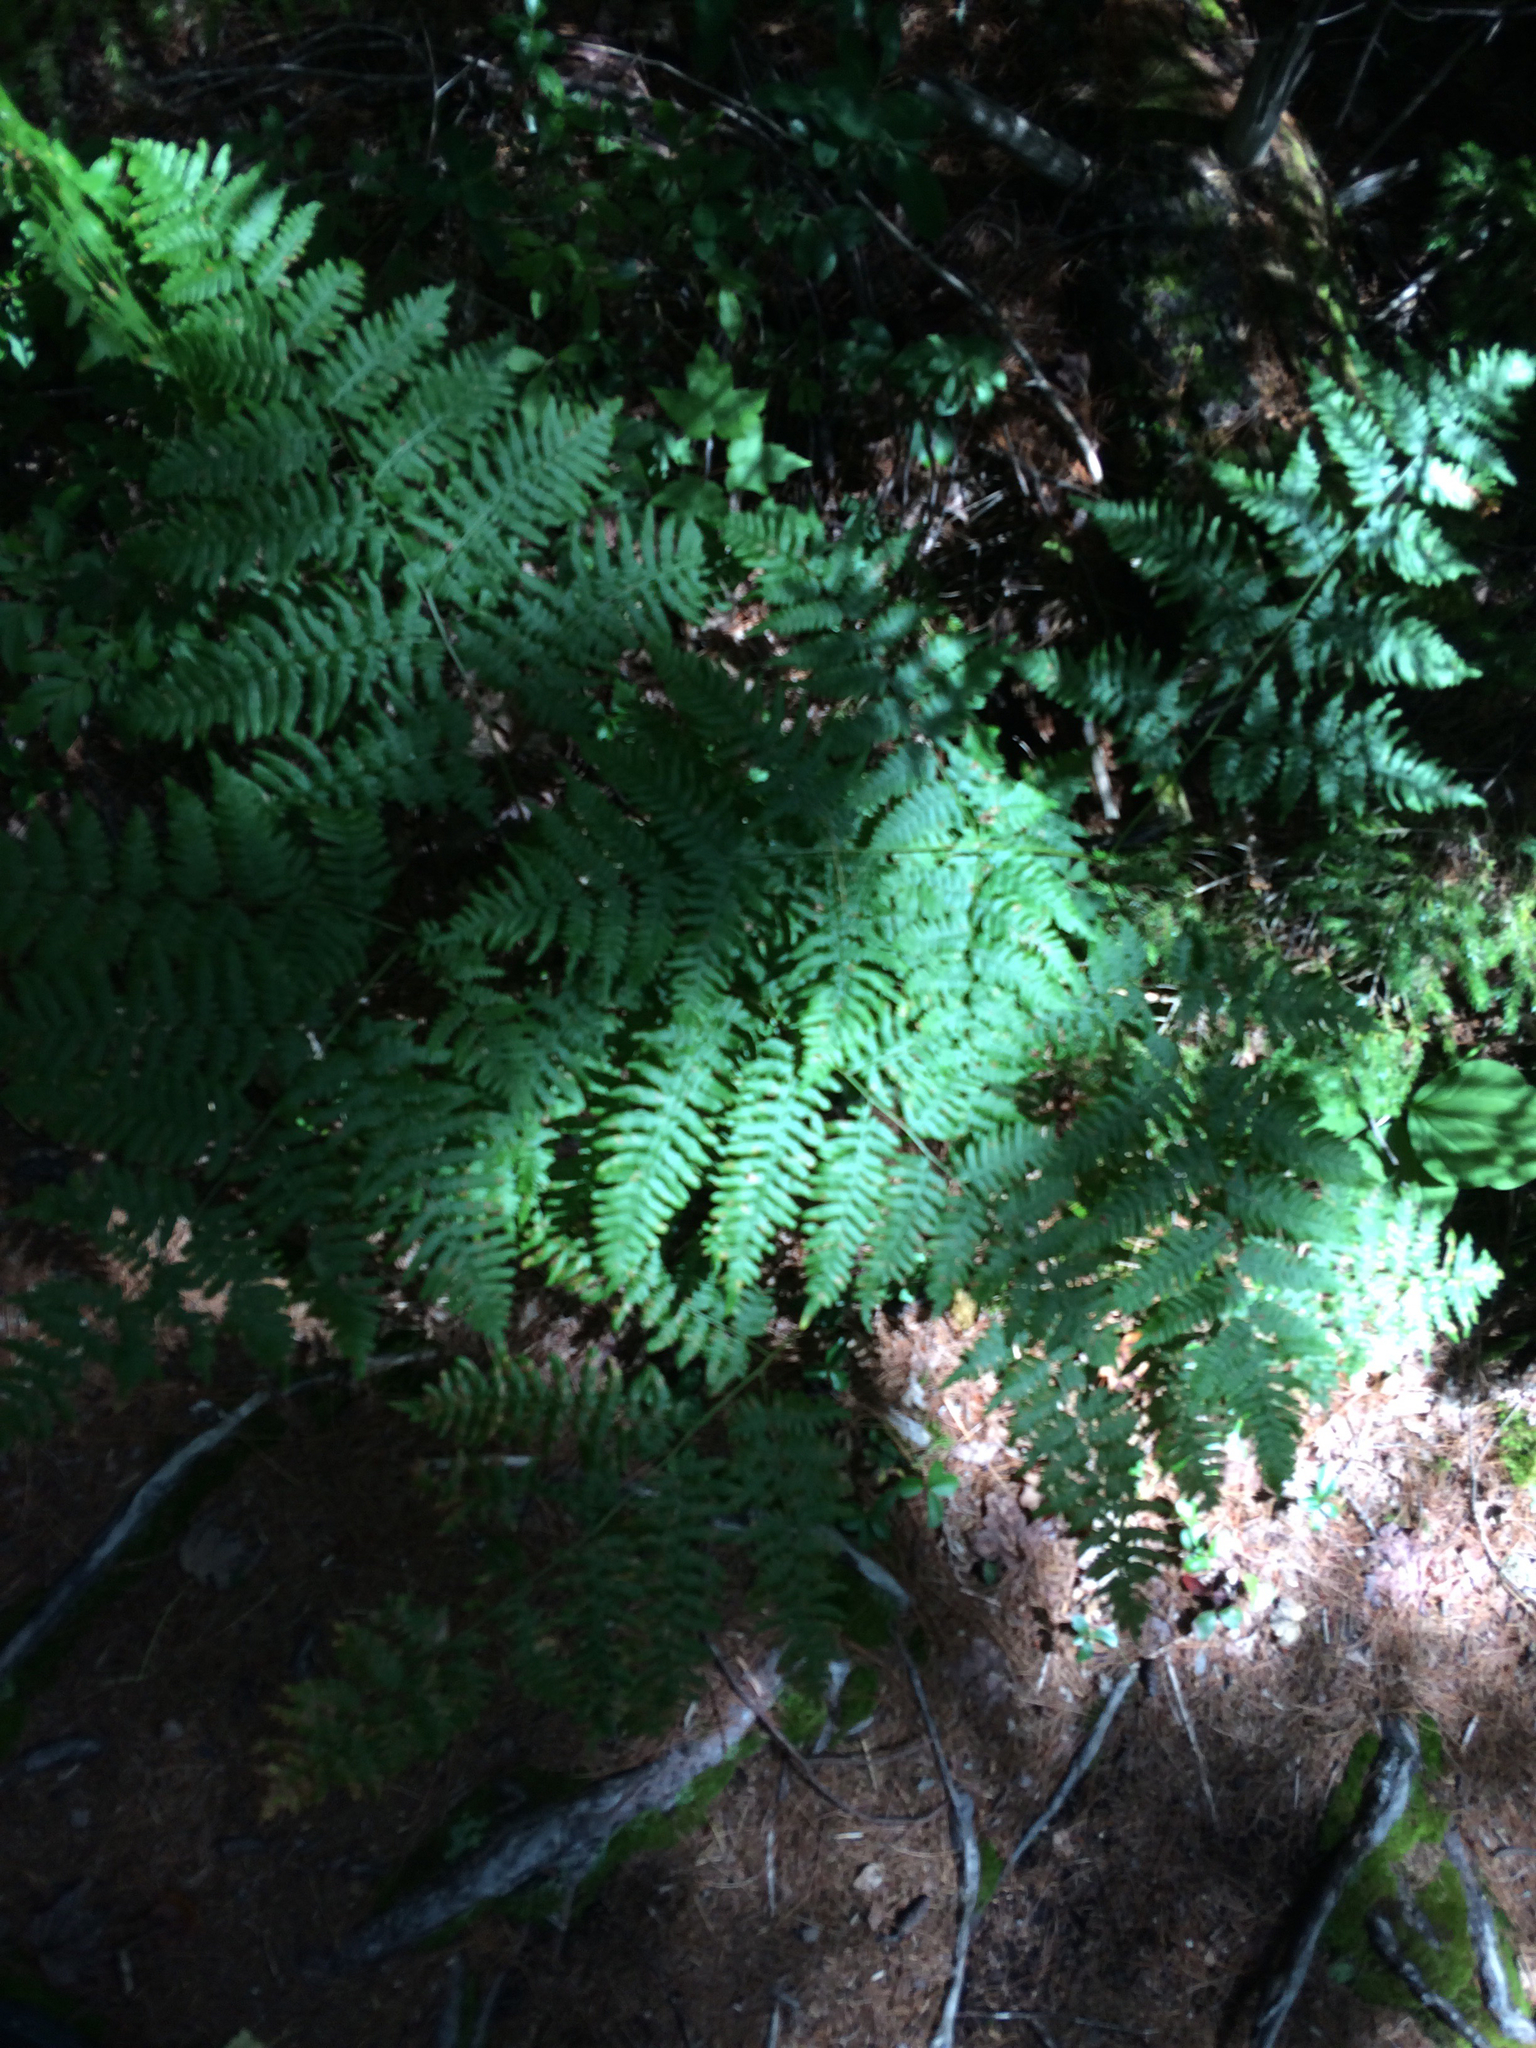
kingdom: Plantae
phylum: Tracheophyta
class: Polypodiopsida
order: Polypodiales
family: Dennstaedtiaceae
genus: Pteridium
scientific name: Pteridium aquilinum
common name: Bracken
